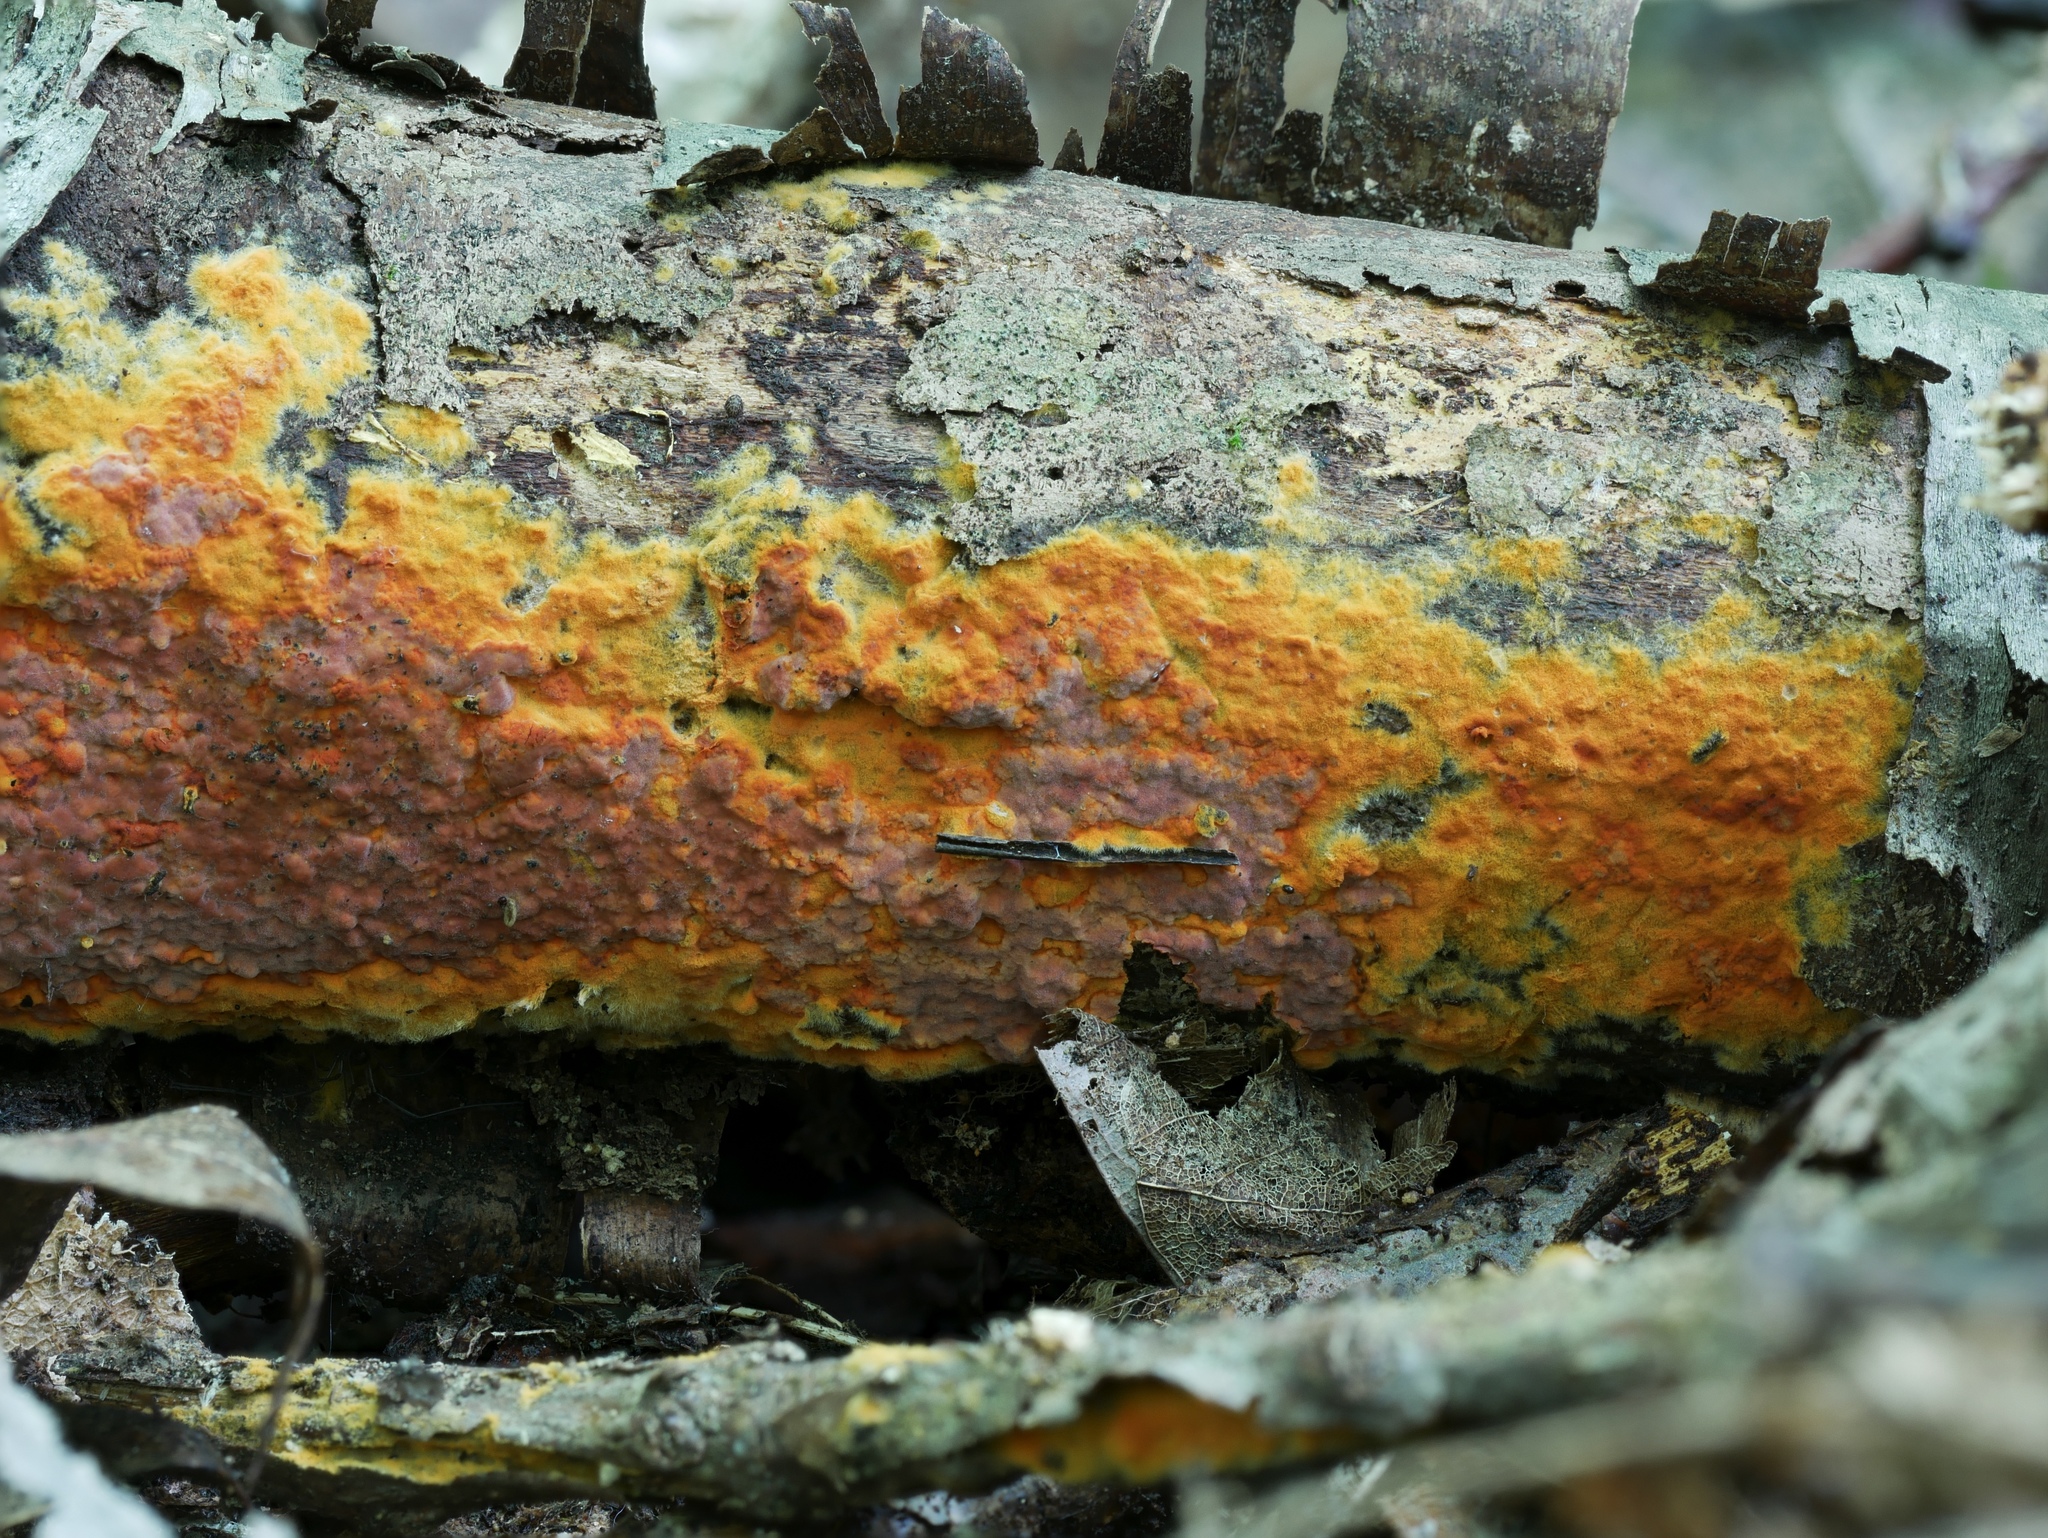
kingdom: Fungi
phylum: Basidiomycota
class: Agaricomycetes
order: Polyporales
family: Meruliaceae
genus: Phlebia
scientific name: Phlebia coccineofulva
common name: Scarlet waxcrust
